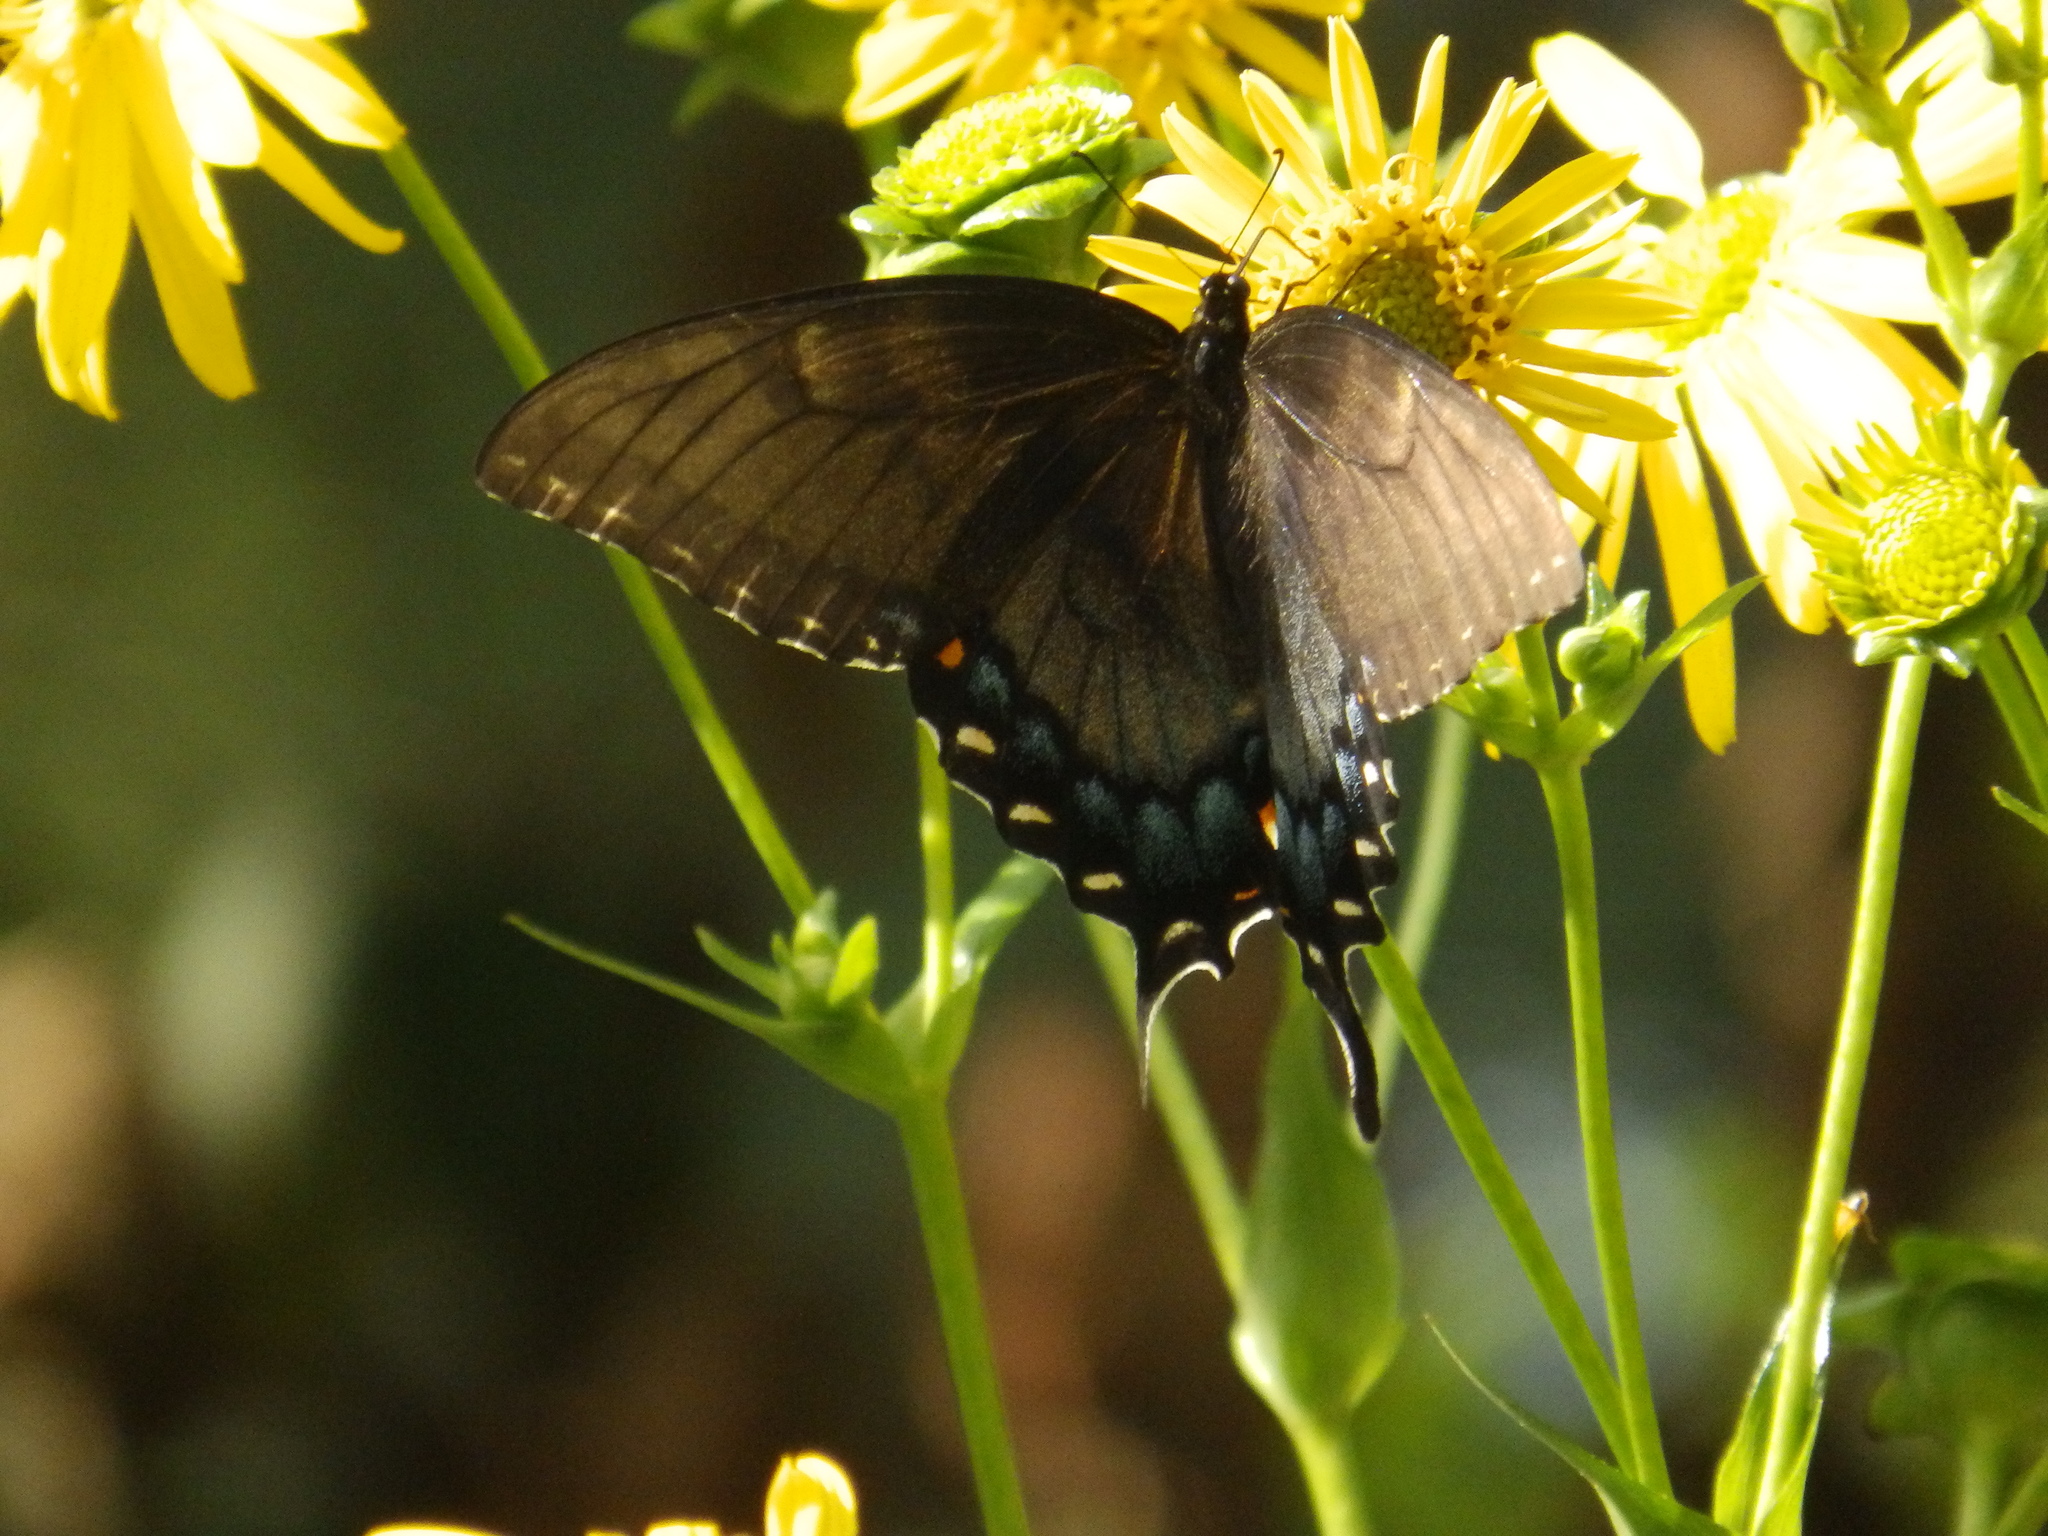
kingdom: Animalia
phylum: Arthropoda
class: Insecta
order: Lepidoptera
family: Papilionidae
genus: Papilio
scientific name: Papilio glaucus
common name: Tiger swallowtail
